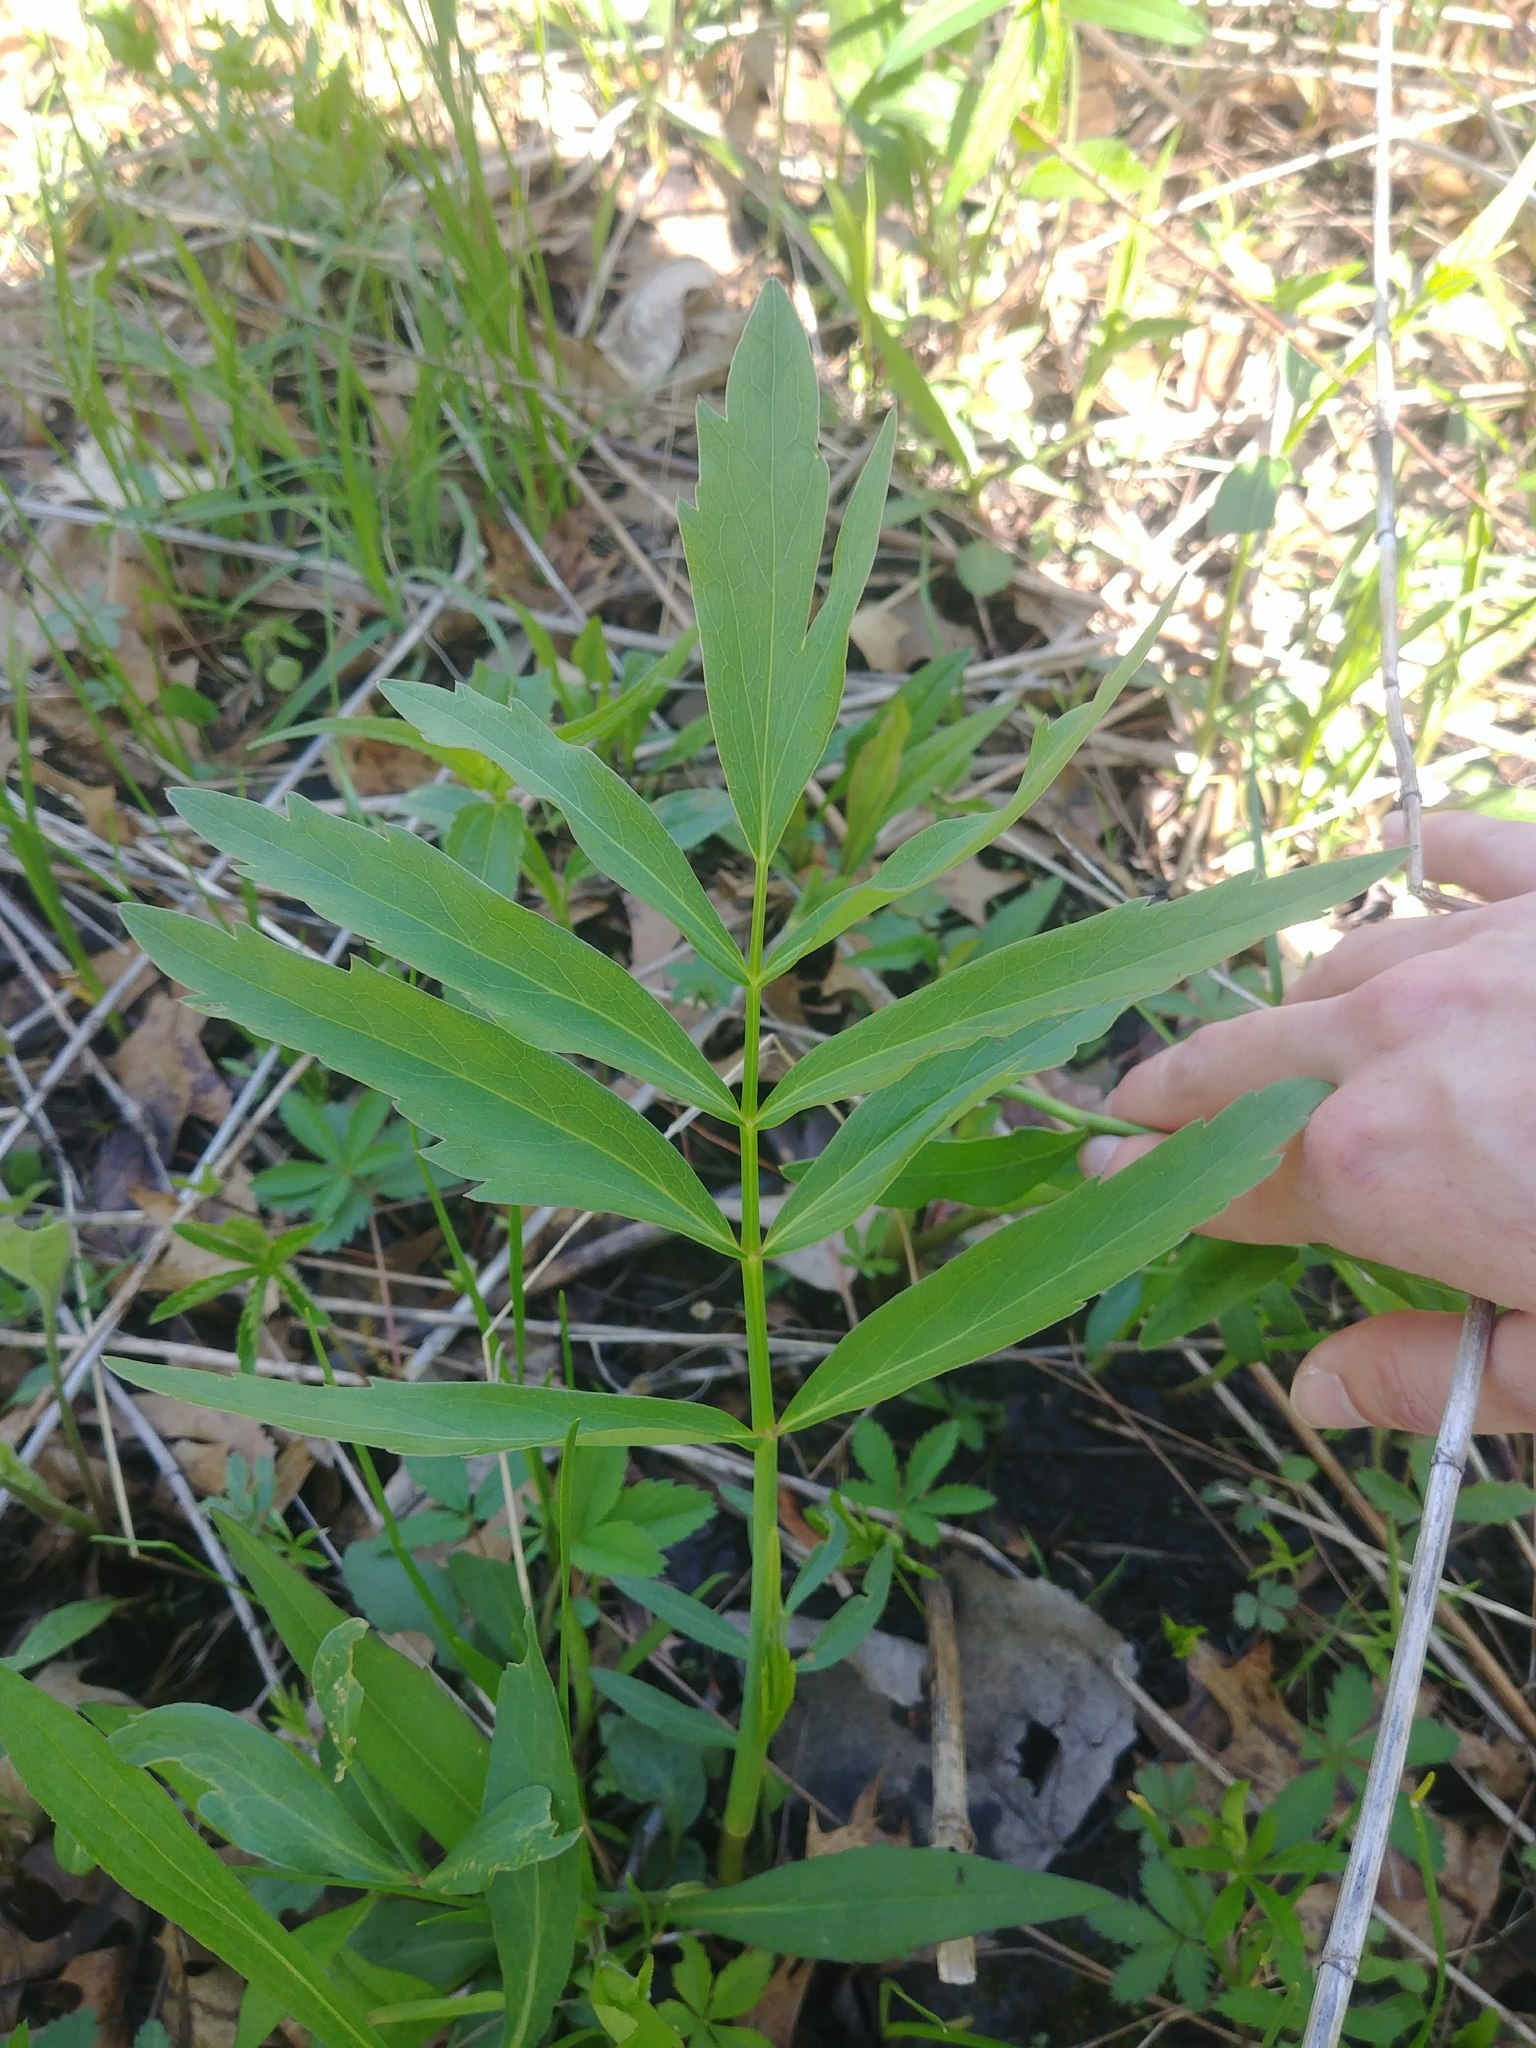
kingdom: Plantae
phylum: Tracheophyta
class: Magnoliopsida
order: Apiales
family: Apiaceae
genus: Oxypolis
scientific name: Oxypolis rigidior
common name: Cowbane
